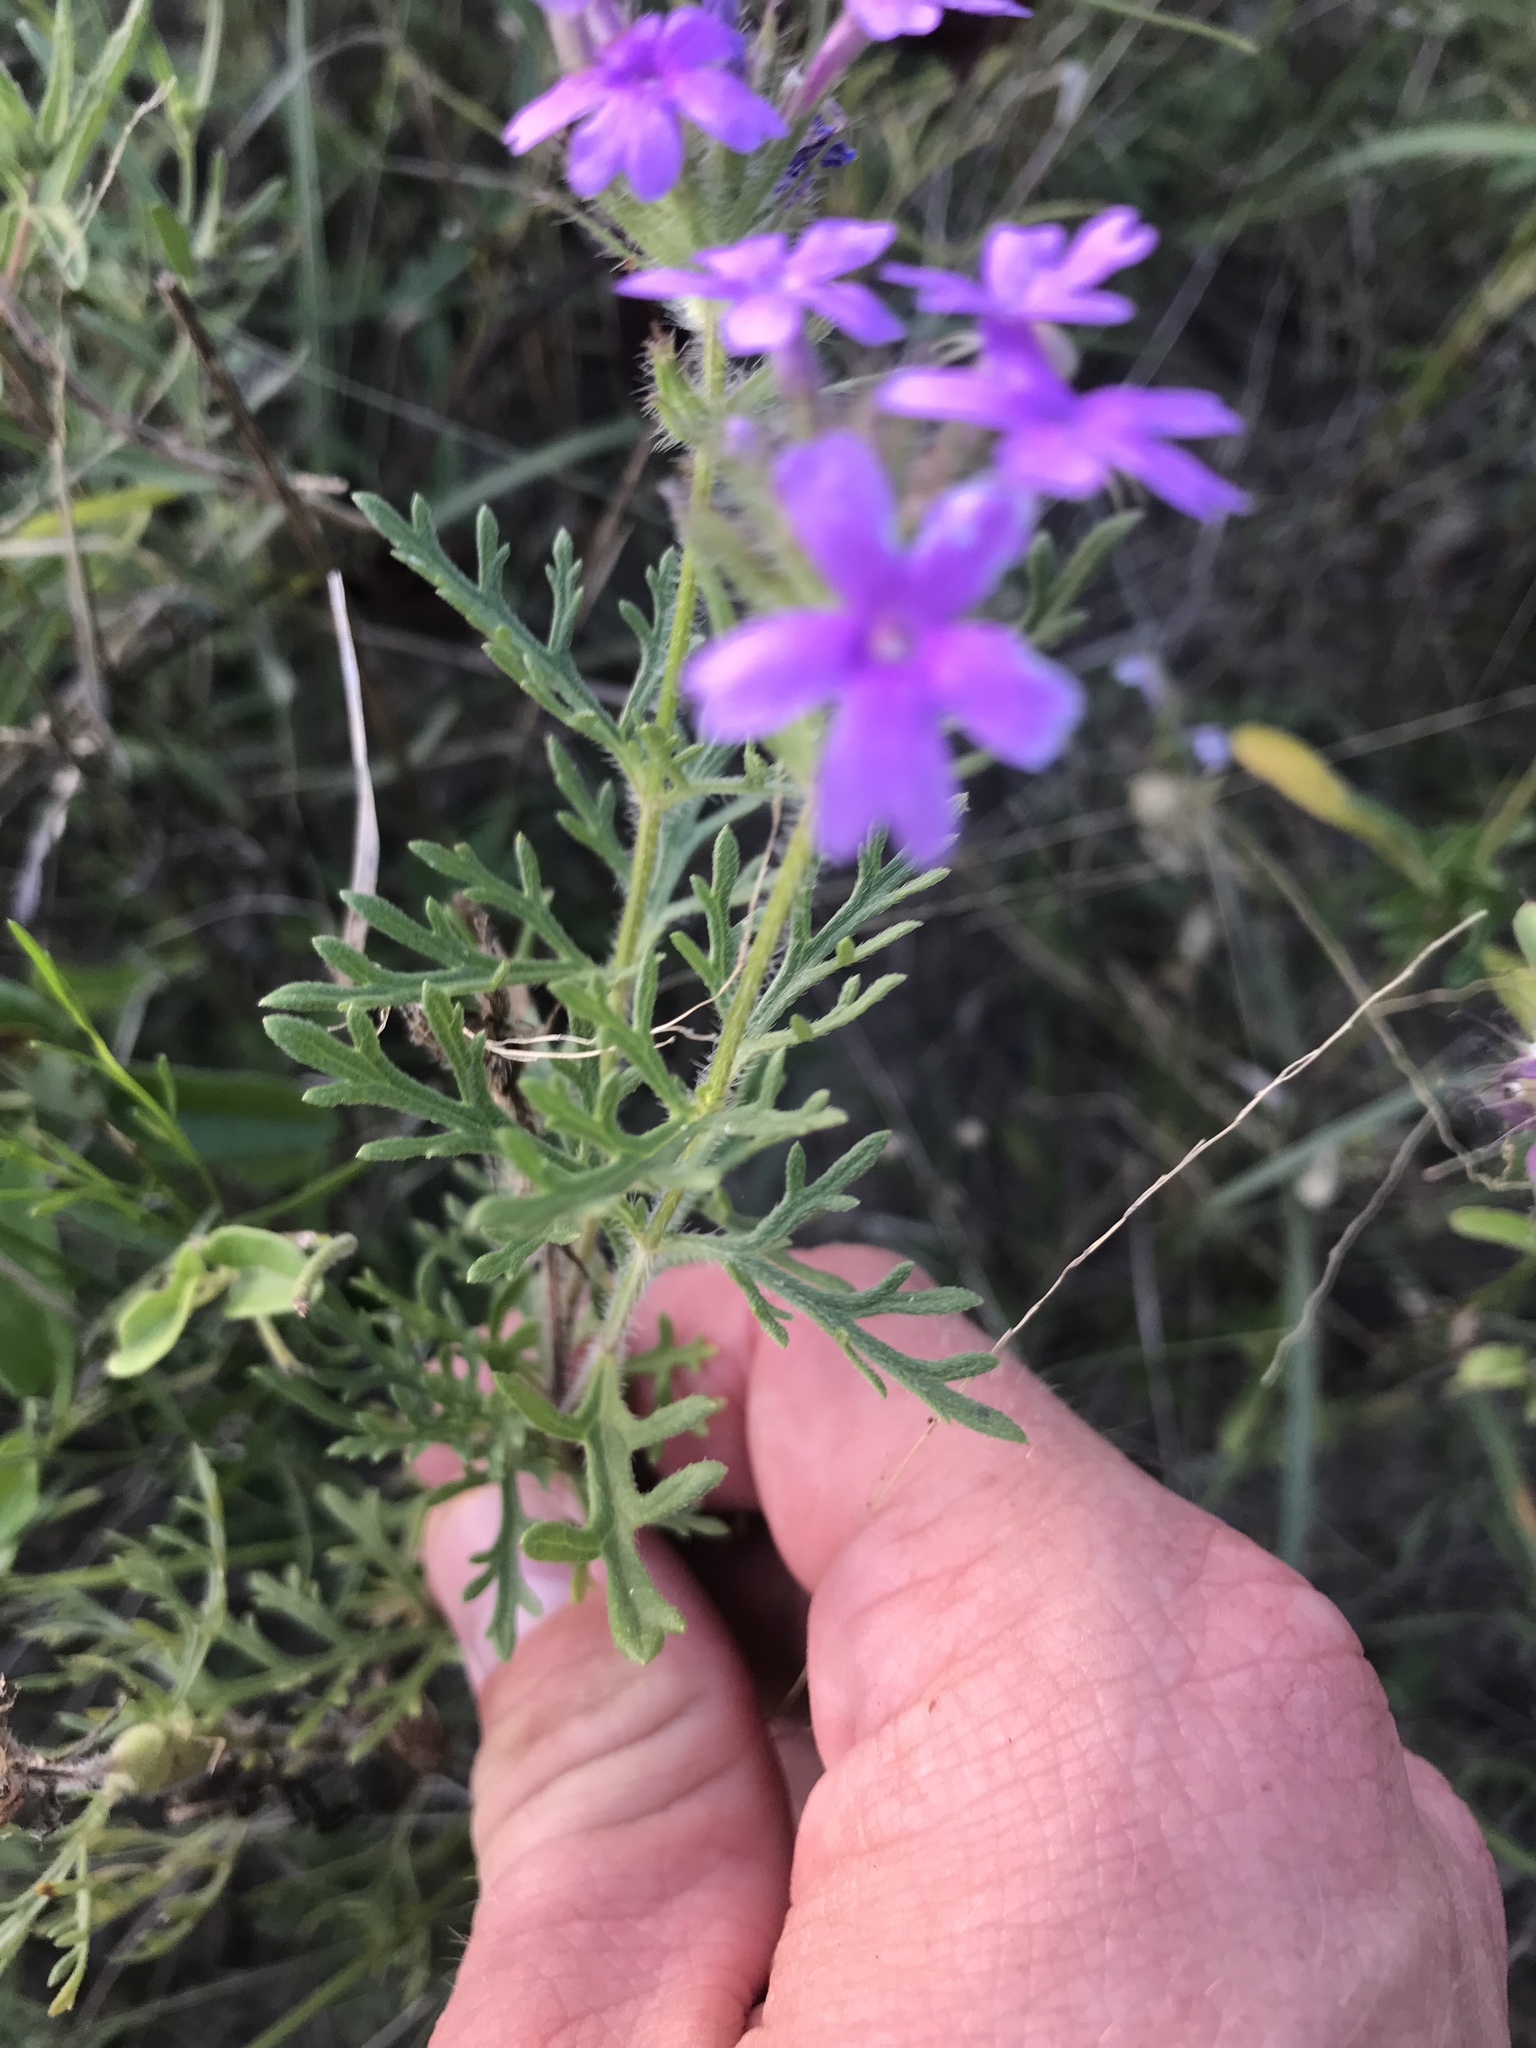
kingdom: Plantae
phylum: Tracheophyta
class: Magnoliopsida
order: Lamiales
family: Verbenaceae
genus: Verbena
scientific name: Verbena bipinnatifida
